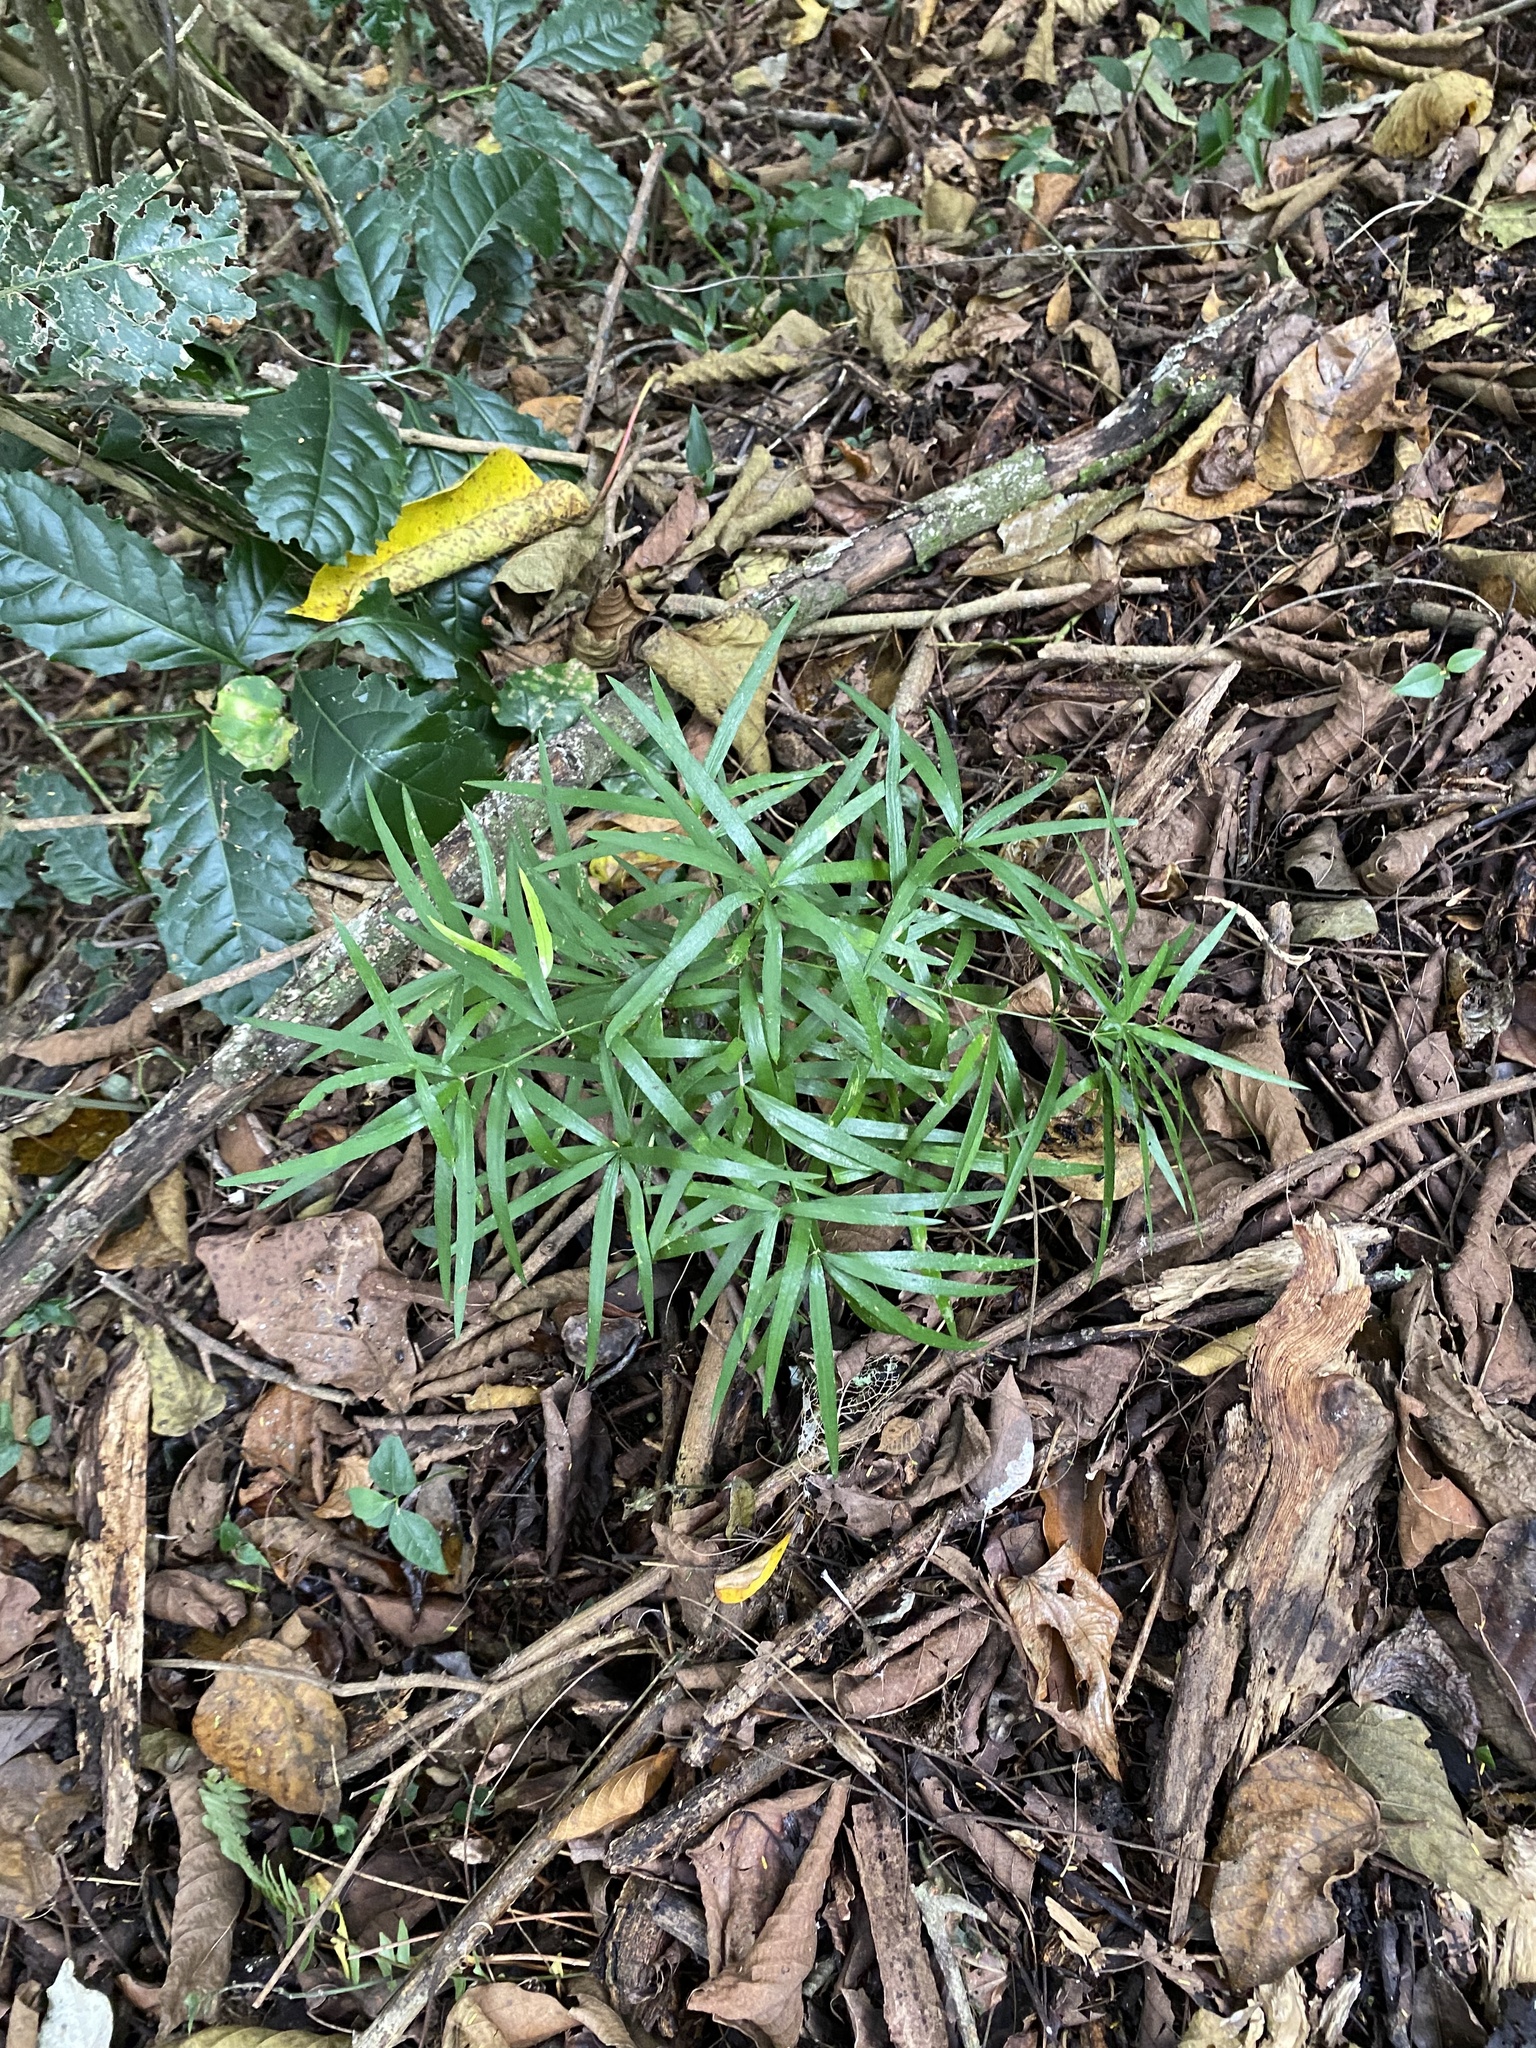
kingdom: Plantae
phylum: Tracheophyta
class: Liliopsida
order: Asparagales
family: Asparagaceae
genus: Asparagus
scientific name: Asparagus falcatus
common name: Asparagus
